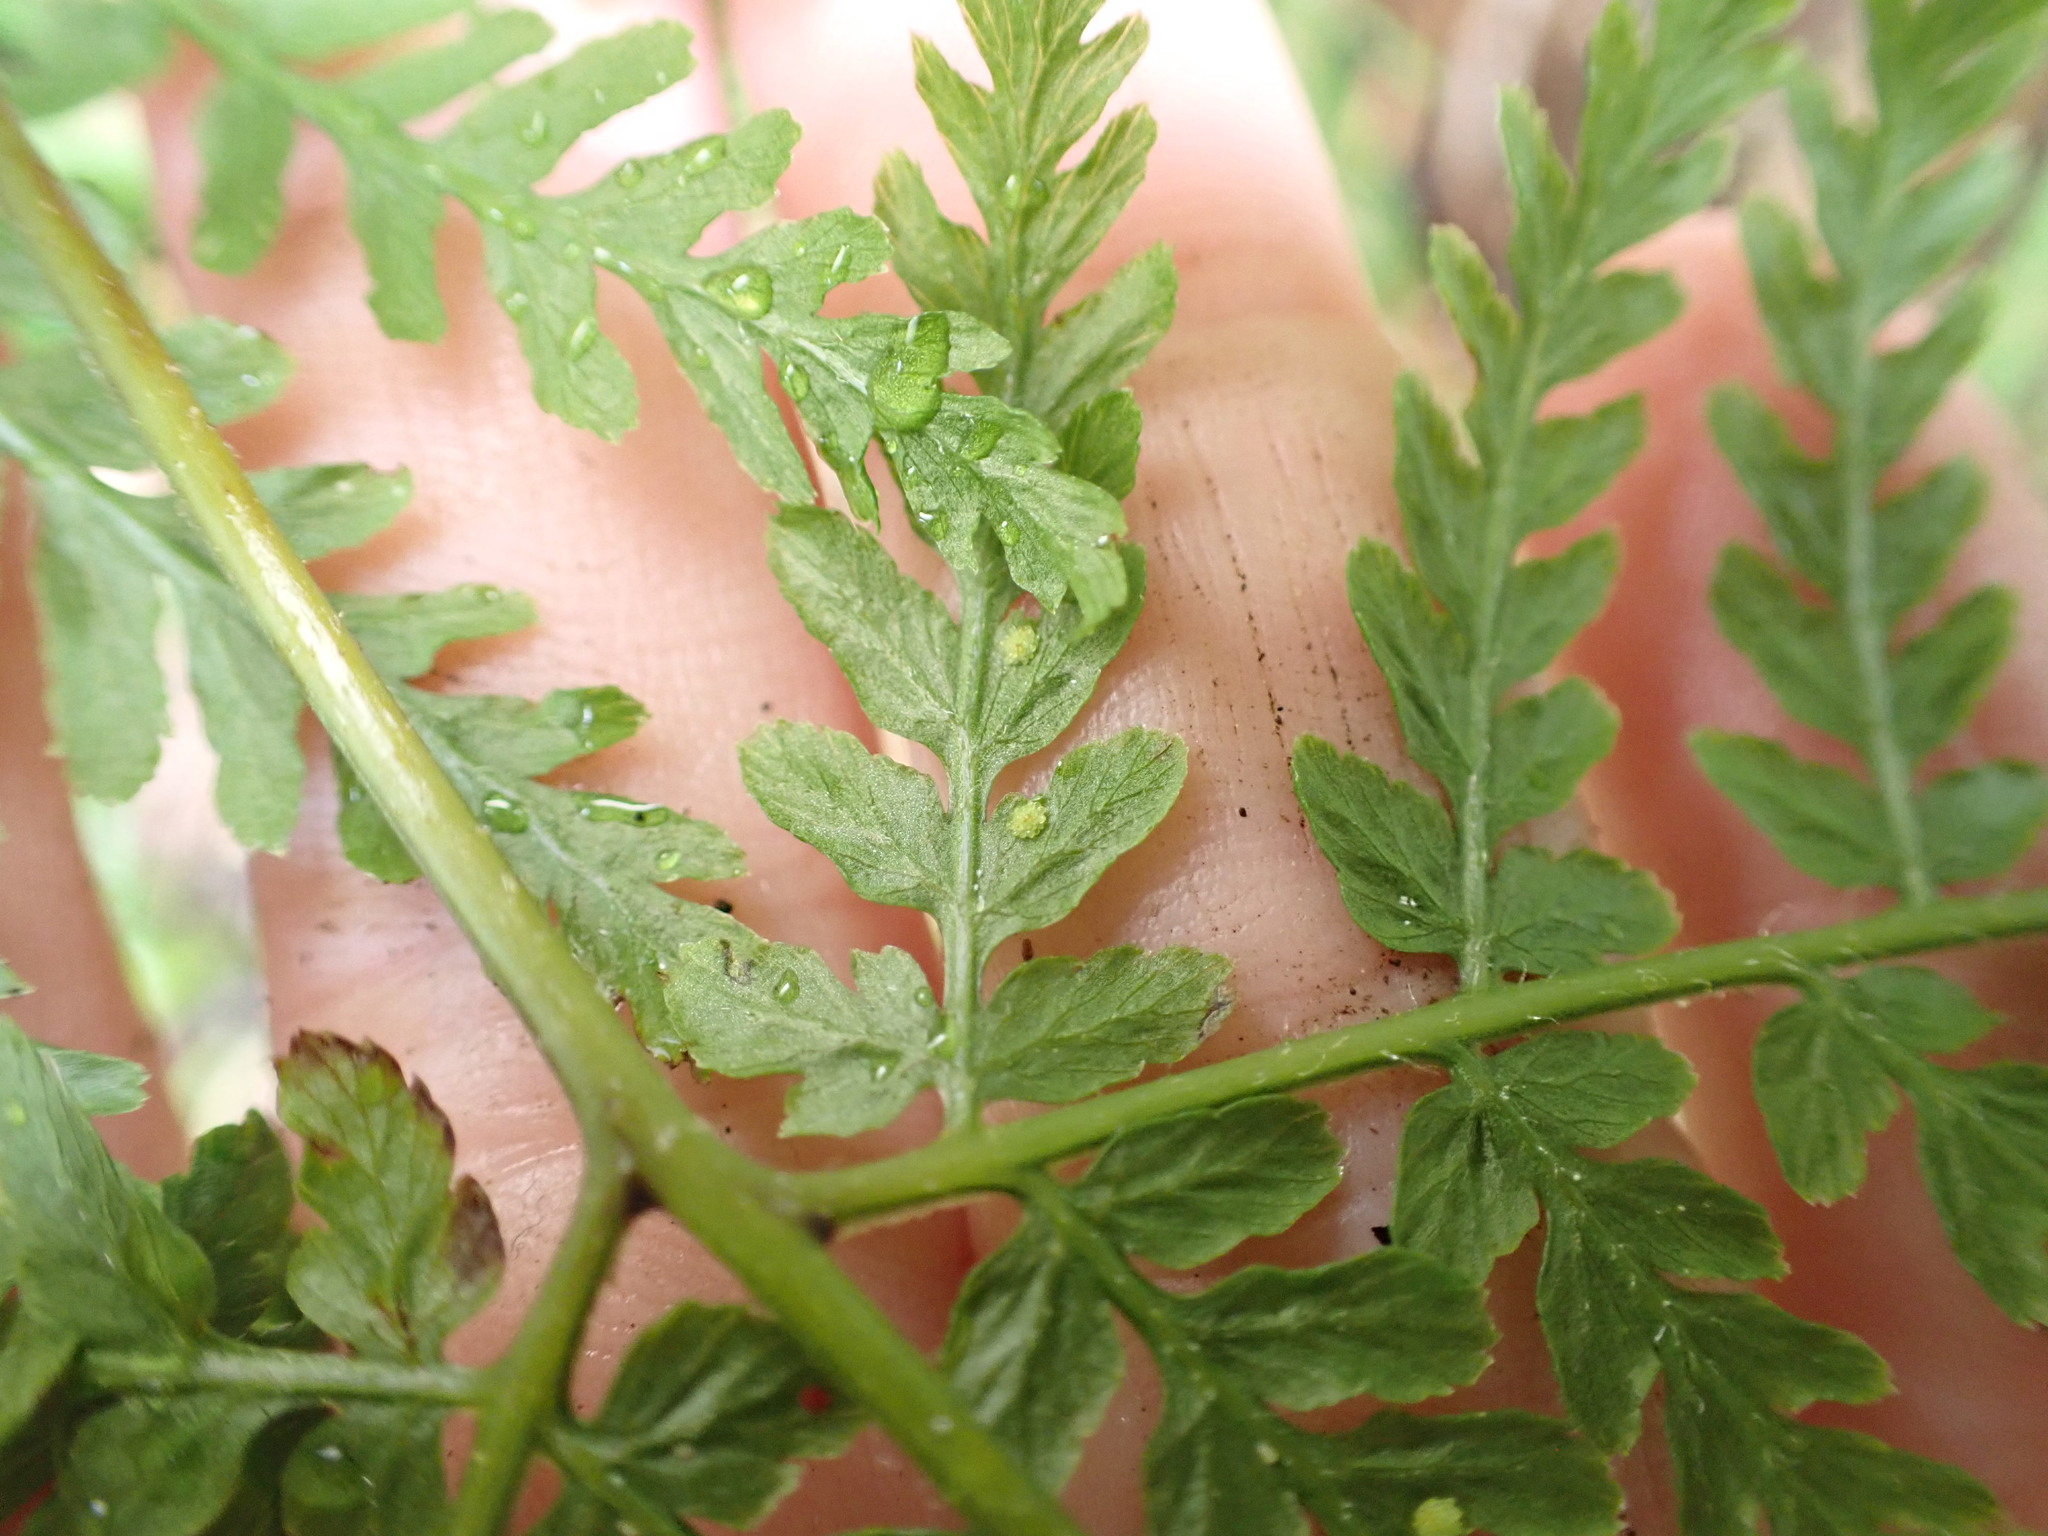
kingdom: Plantae
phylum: Tracheophyta
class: Polypodiopsida
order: Polypodiales
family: Dennstaedtiaceae
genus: Hypolepis
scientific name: Hypolepis ambigua
